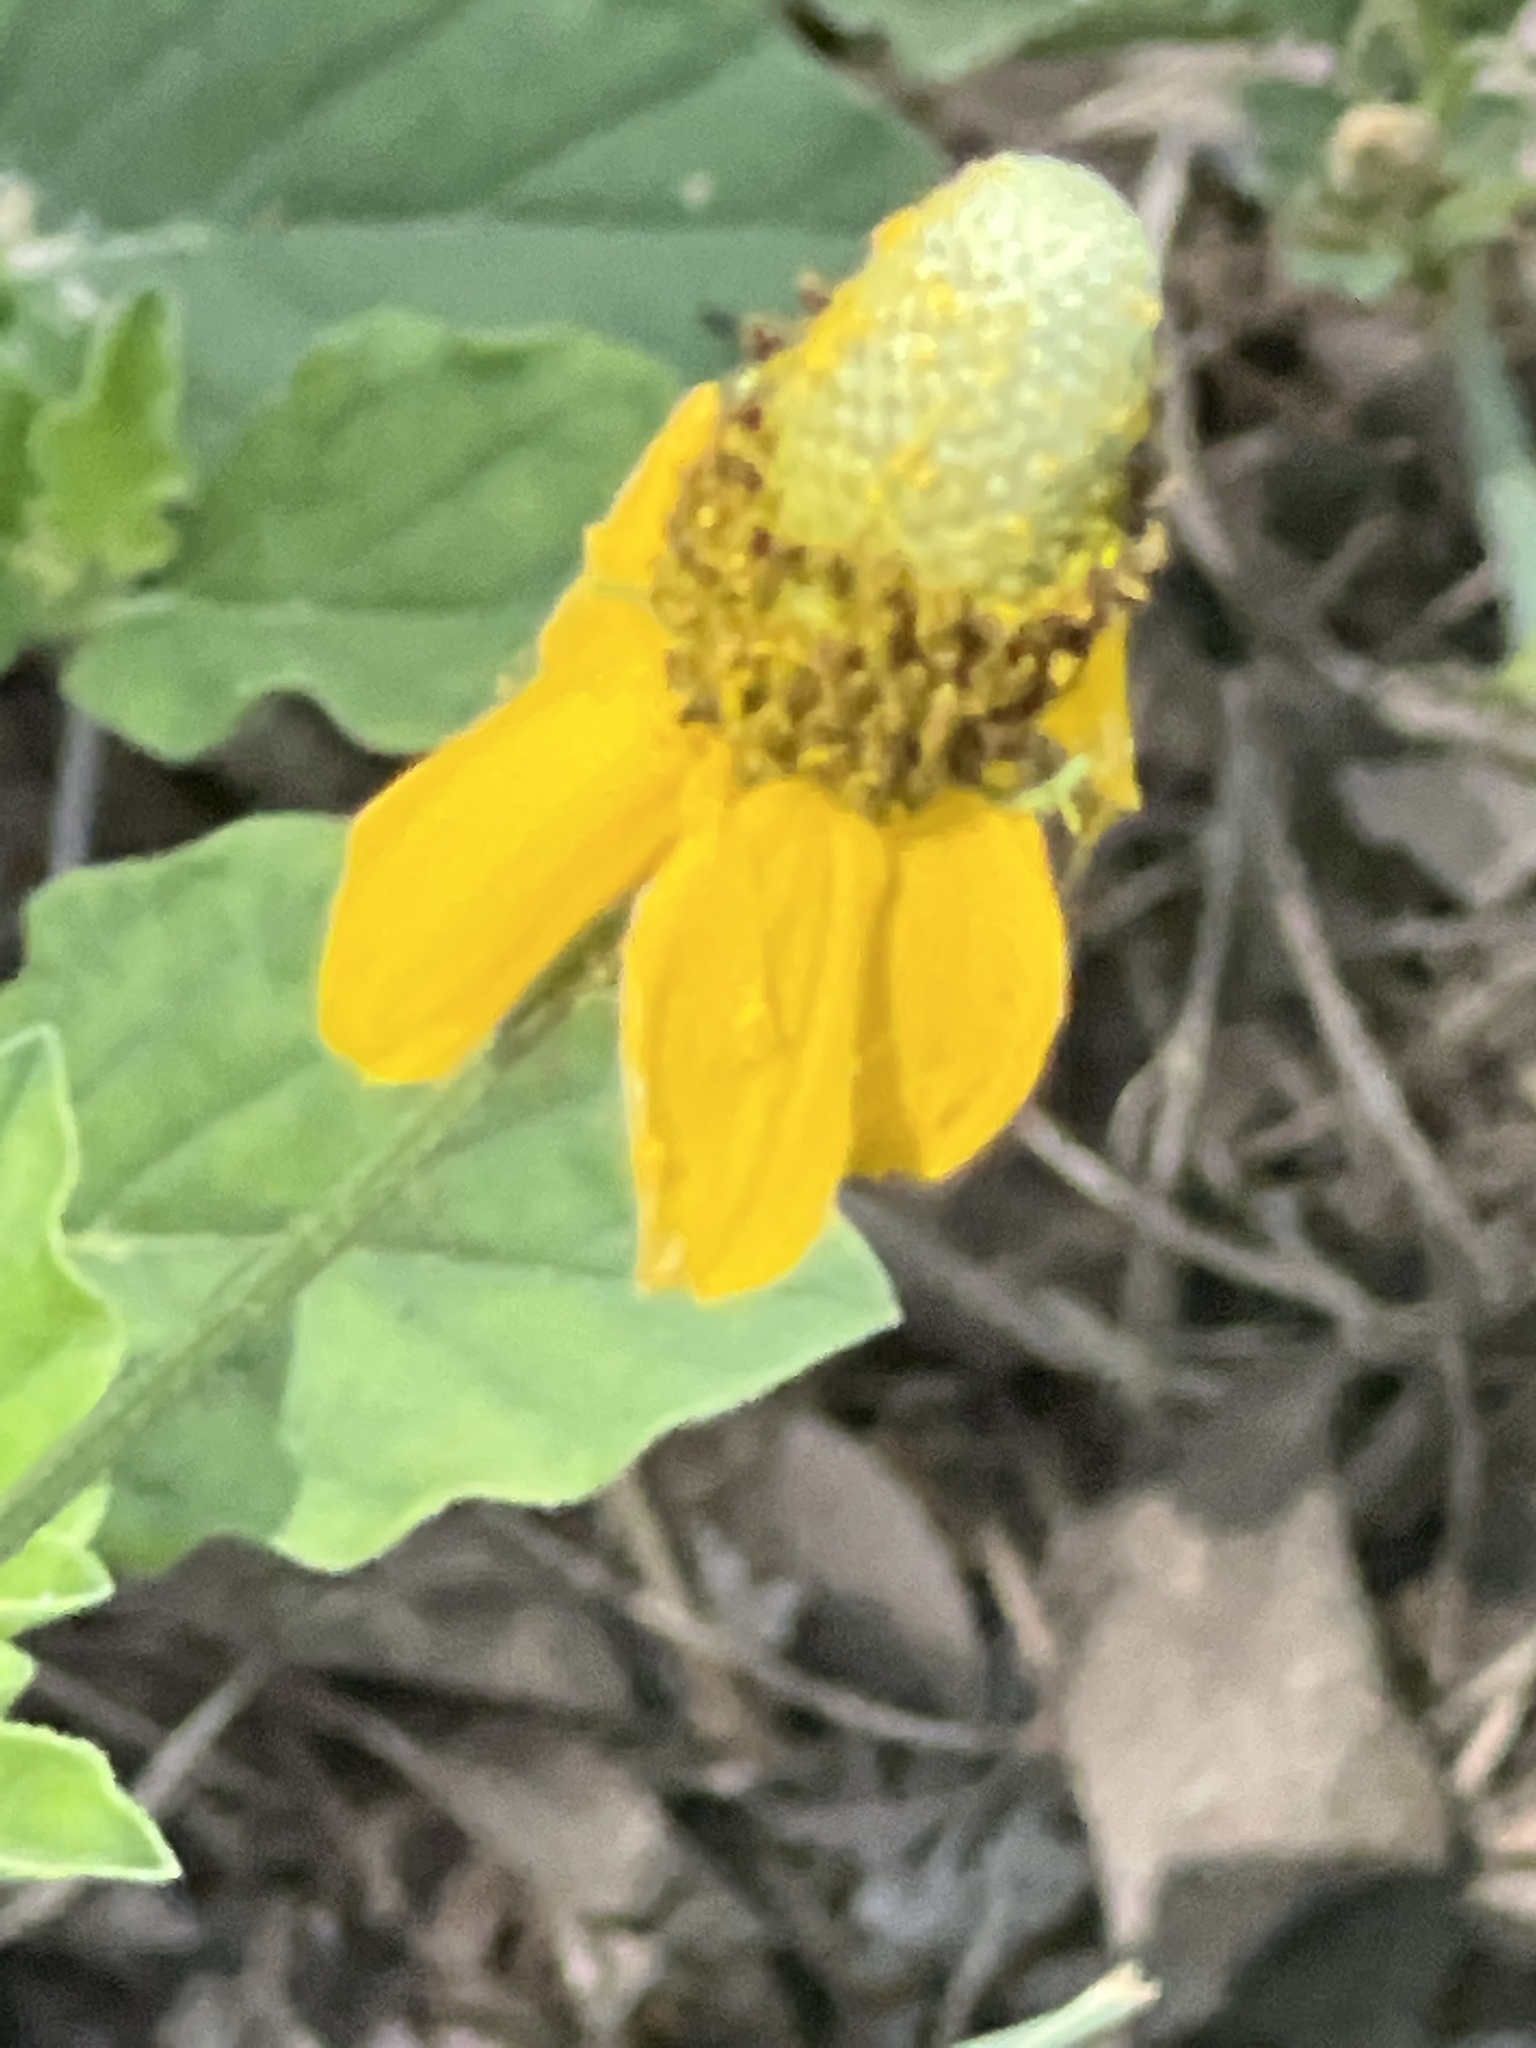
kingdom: Plantae
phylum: Tracheophyta
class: Magnoliopsida
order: Asterales
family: Asteraceae
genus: Ratibida
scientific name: Ratibida columnifera
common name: Prairie coneflower
